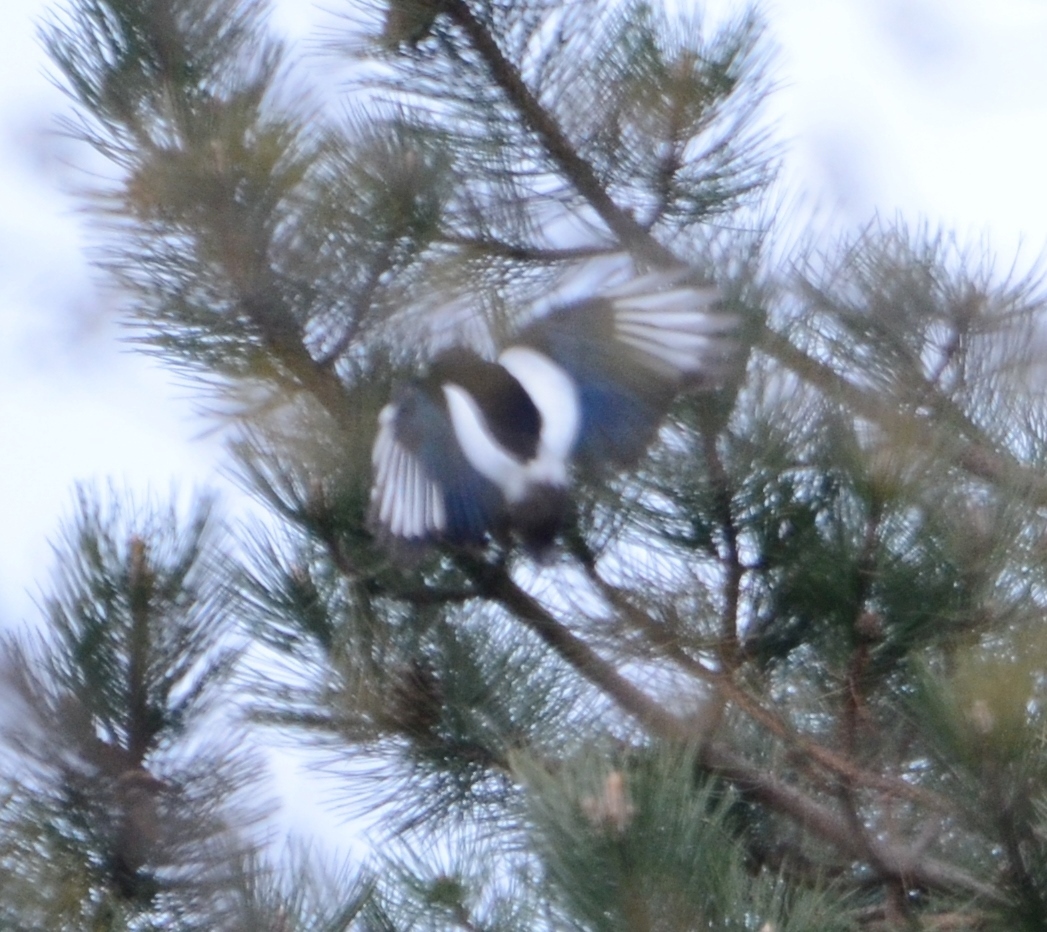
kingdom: Animalia
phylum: Chordata
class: Aves
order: Passeriformes
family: Corvidae
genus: Pica
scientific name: Pica pica
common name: Eurasian magpie
